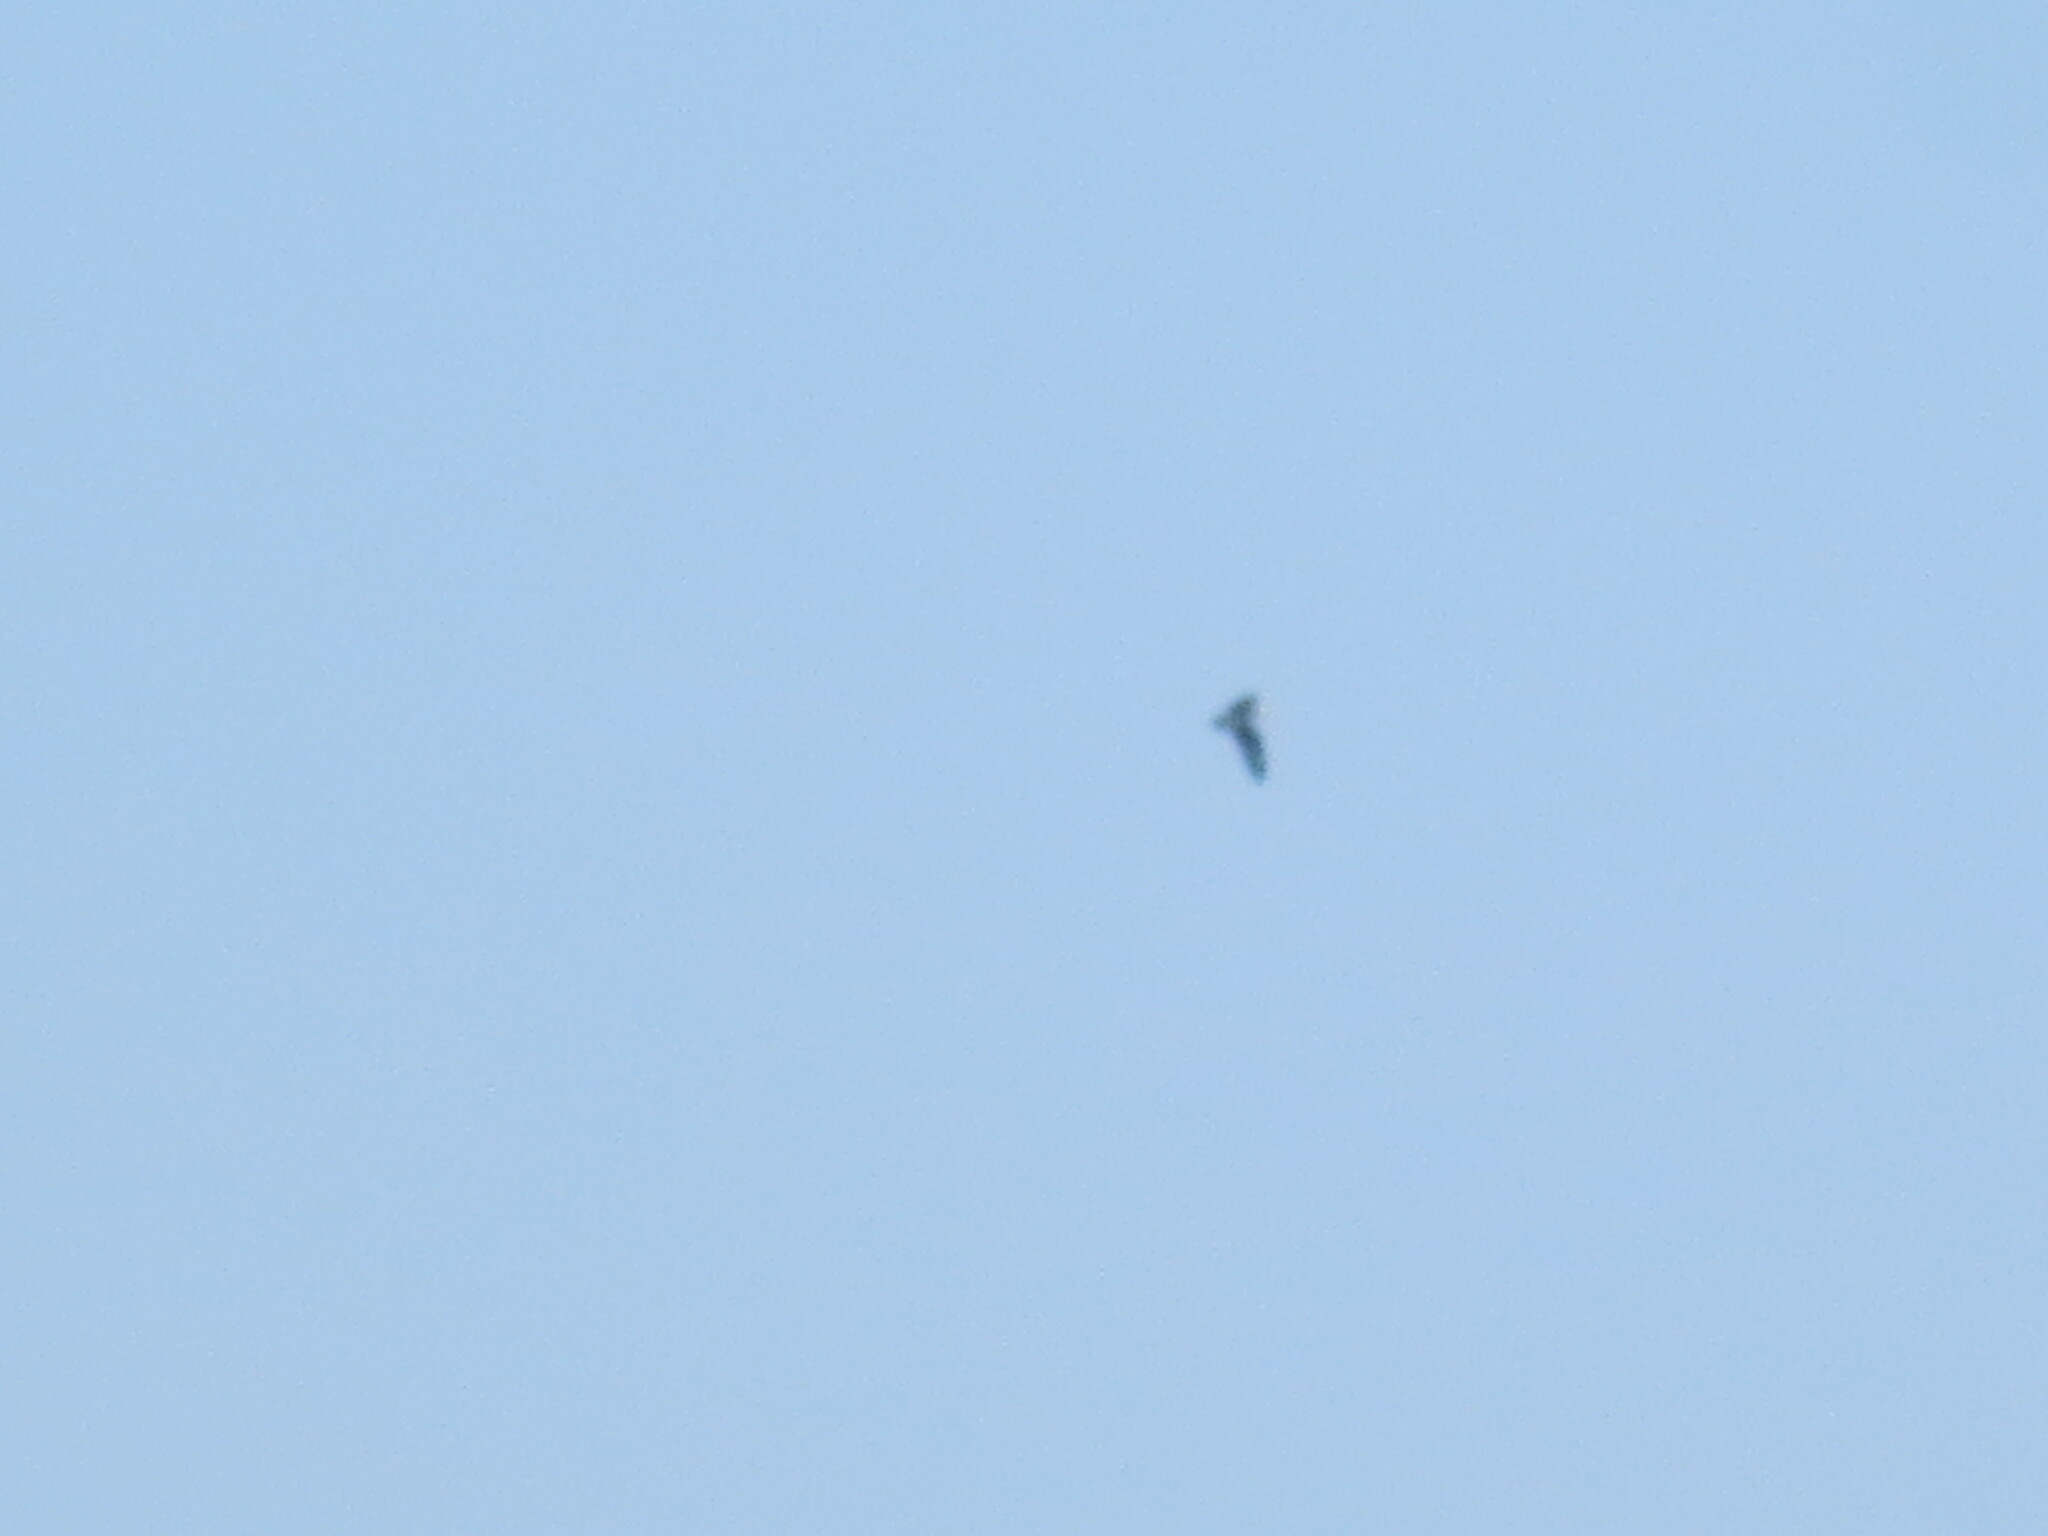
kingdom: Animalia
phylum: Chordata
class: Aves
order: Accipitriformes
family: Pandionidae
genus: Pandion
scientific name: Pandion haliaetus
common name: Osprey
